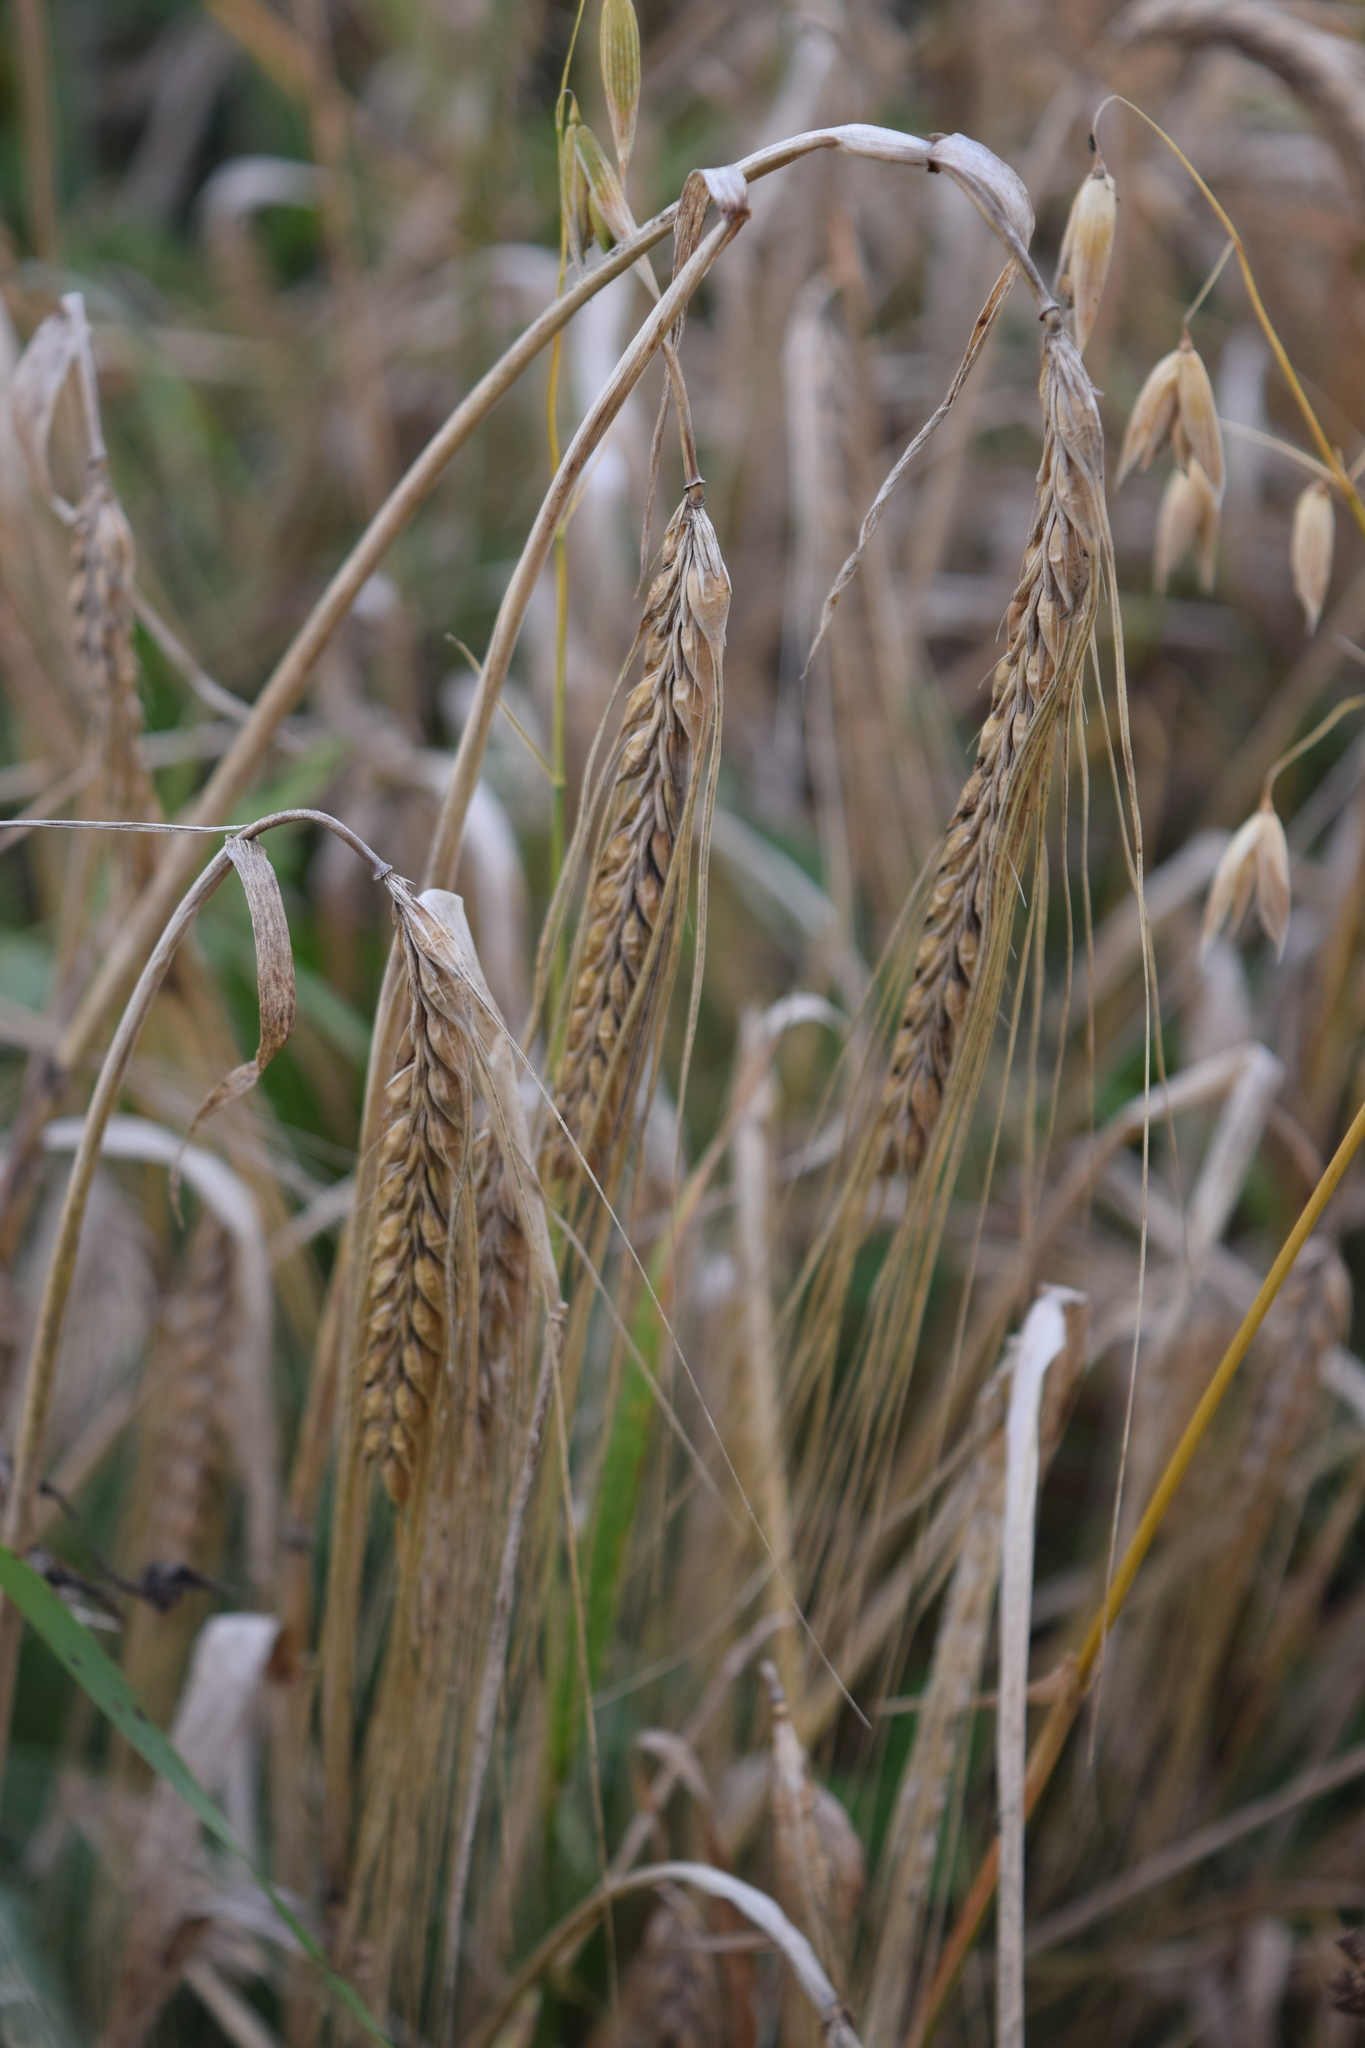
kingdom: Plantae
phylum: Tracheophyta
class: Liliopsida
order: Poales
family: Poaceae
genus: Hordeum
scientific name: Hordeum vulgare
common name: Common barley
